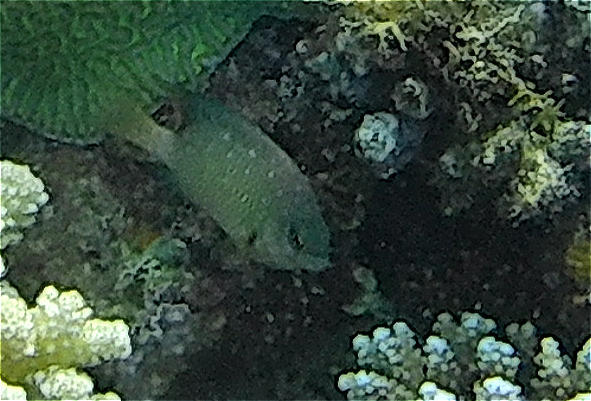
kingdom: Animalia
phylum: Chordata
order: Perciformes
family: Pomacentridae
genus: Plectroglyphidodon
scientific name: Plectroglyphidodon lacrymatus
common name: Jewel damsel
